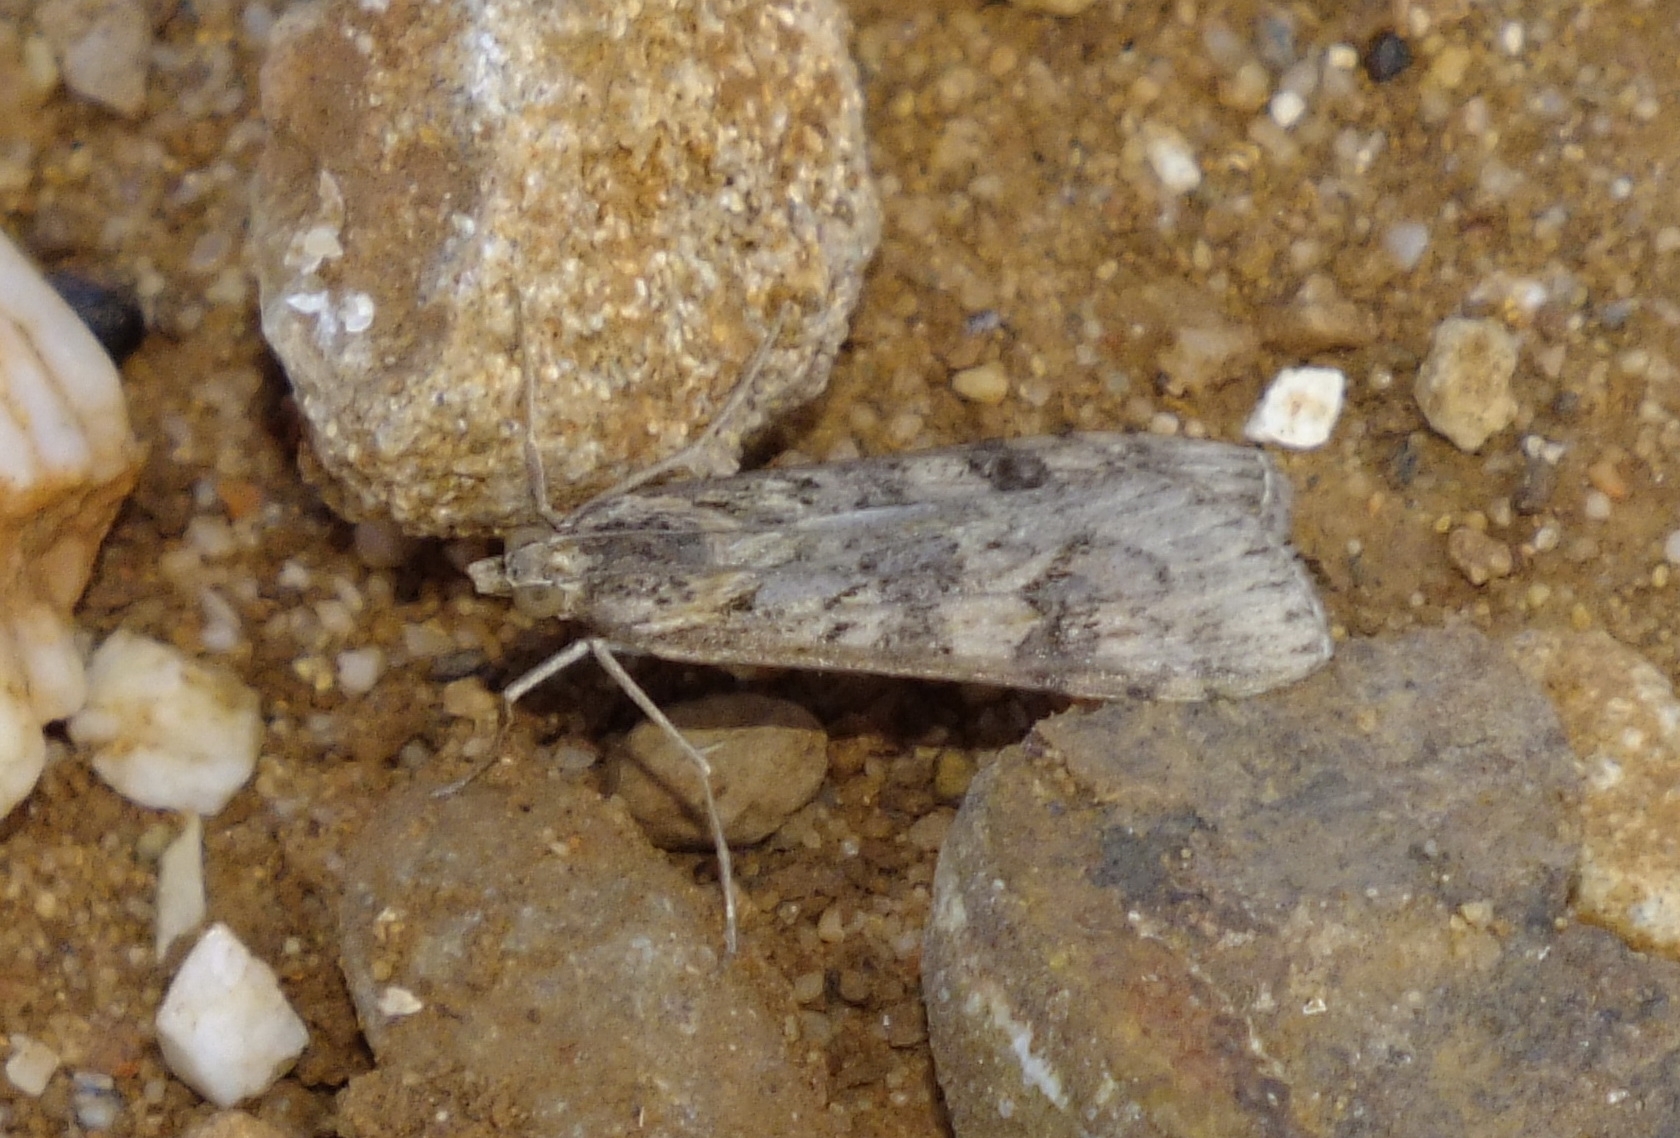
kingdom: Animalia
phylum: Arthropoda
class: Insecta
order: Lepidoptera
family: Crambidae
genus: Nomophila
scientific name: Nomophila noctuella
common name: Rush veneer
